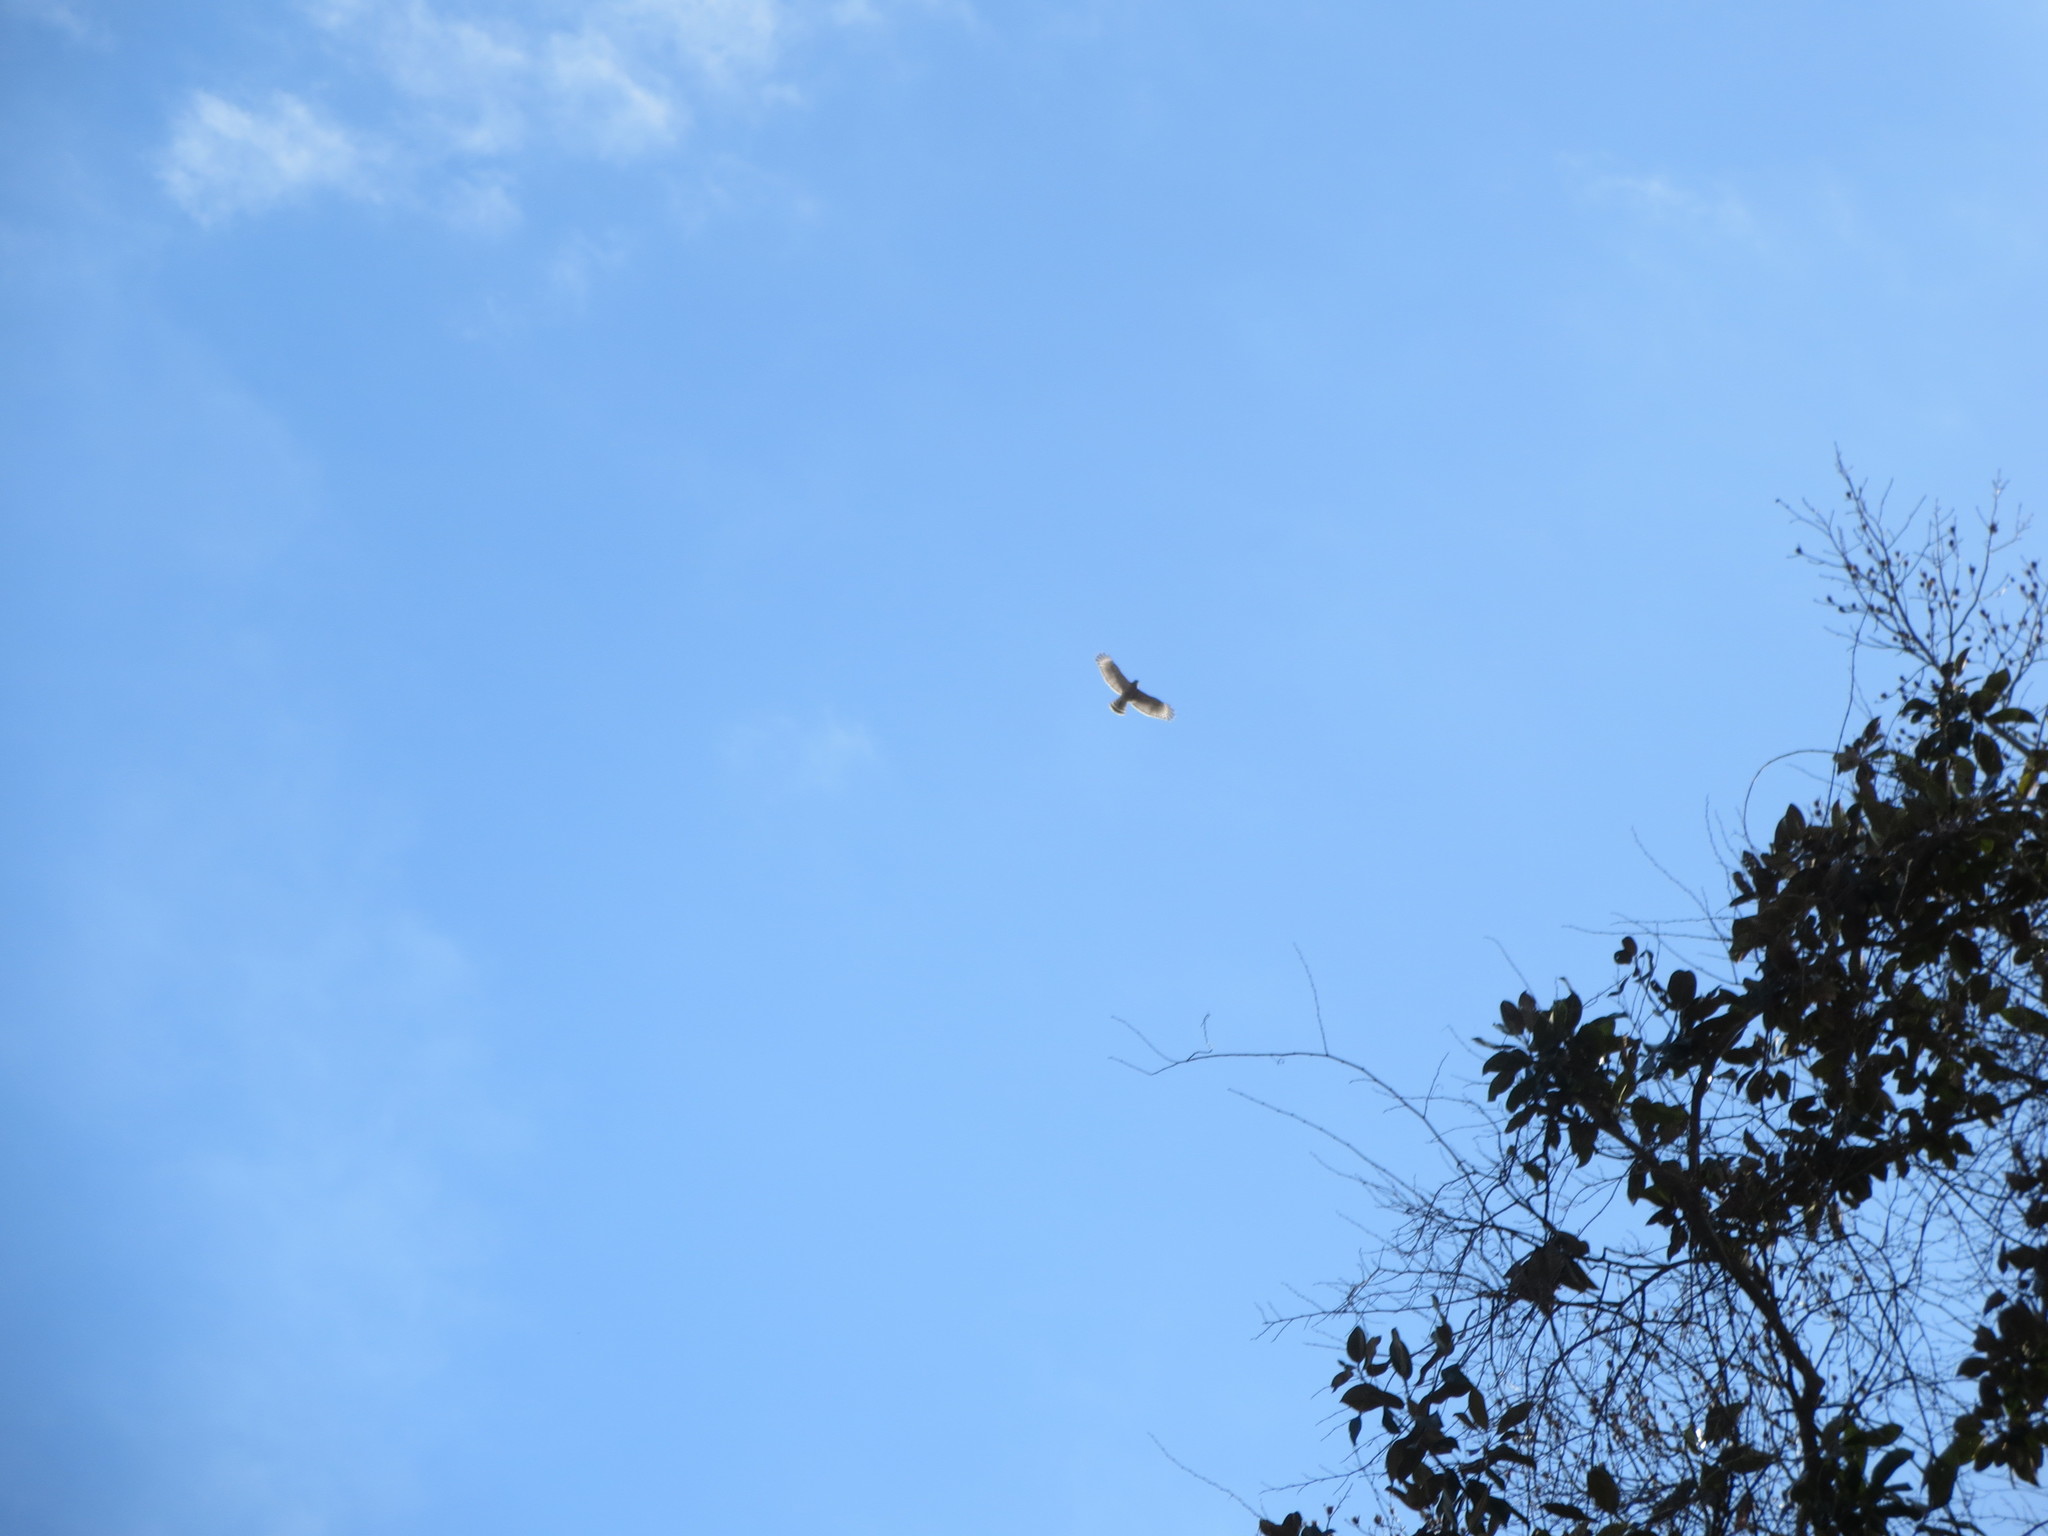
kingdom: Animalia
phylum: Chordata
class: Aves
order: Accipitriformes
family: Accipitridae
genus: Buteo
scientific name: Buteo lineatus
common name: Red-shouldered hawk
